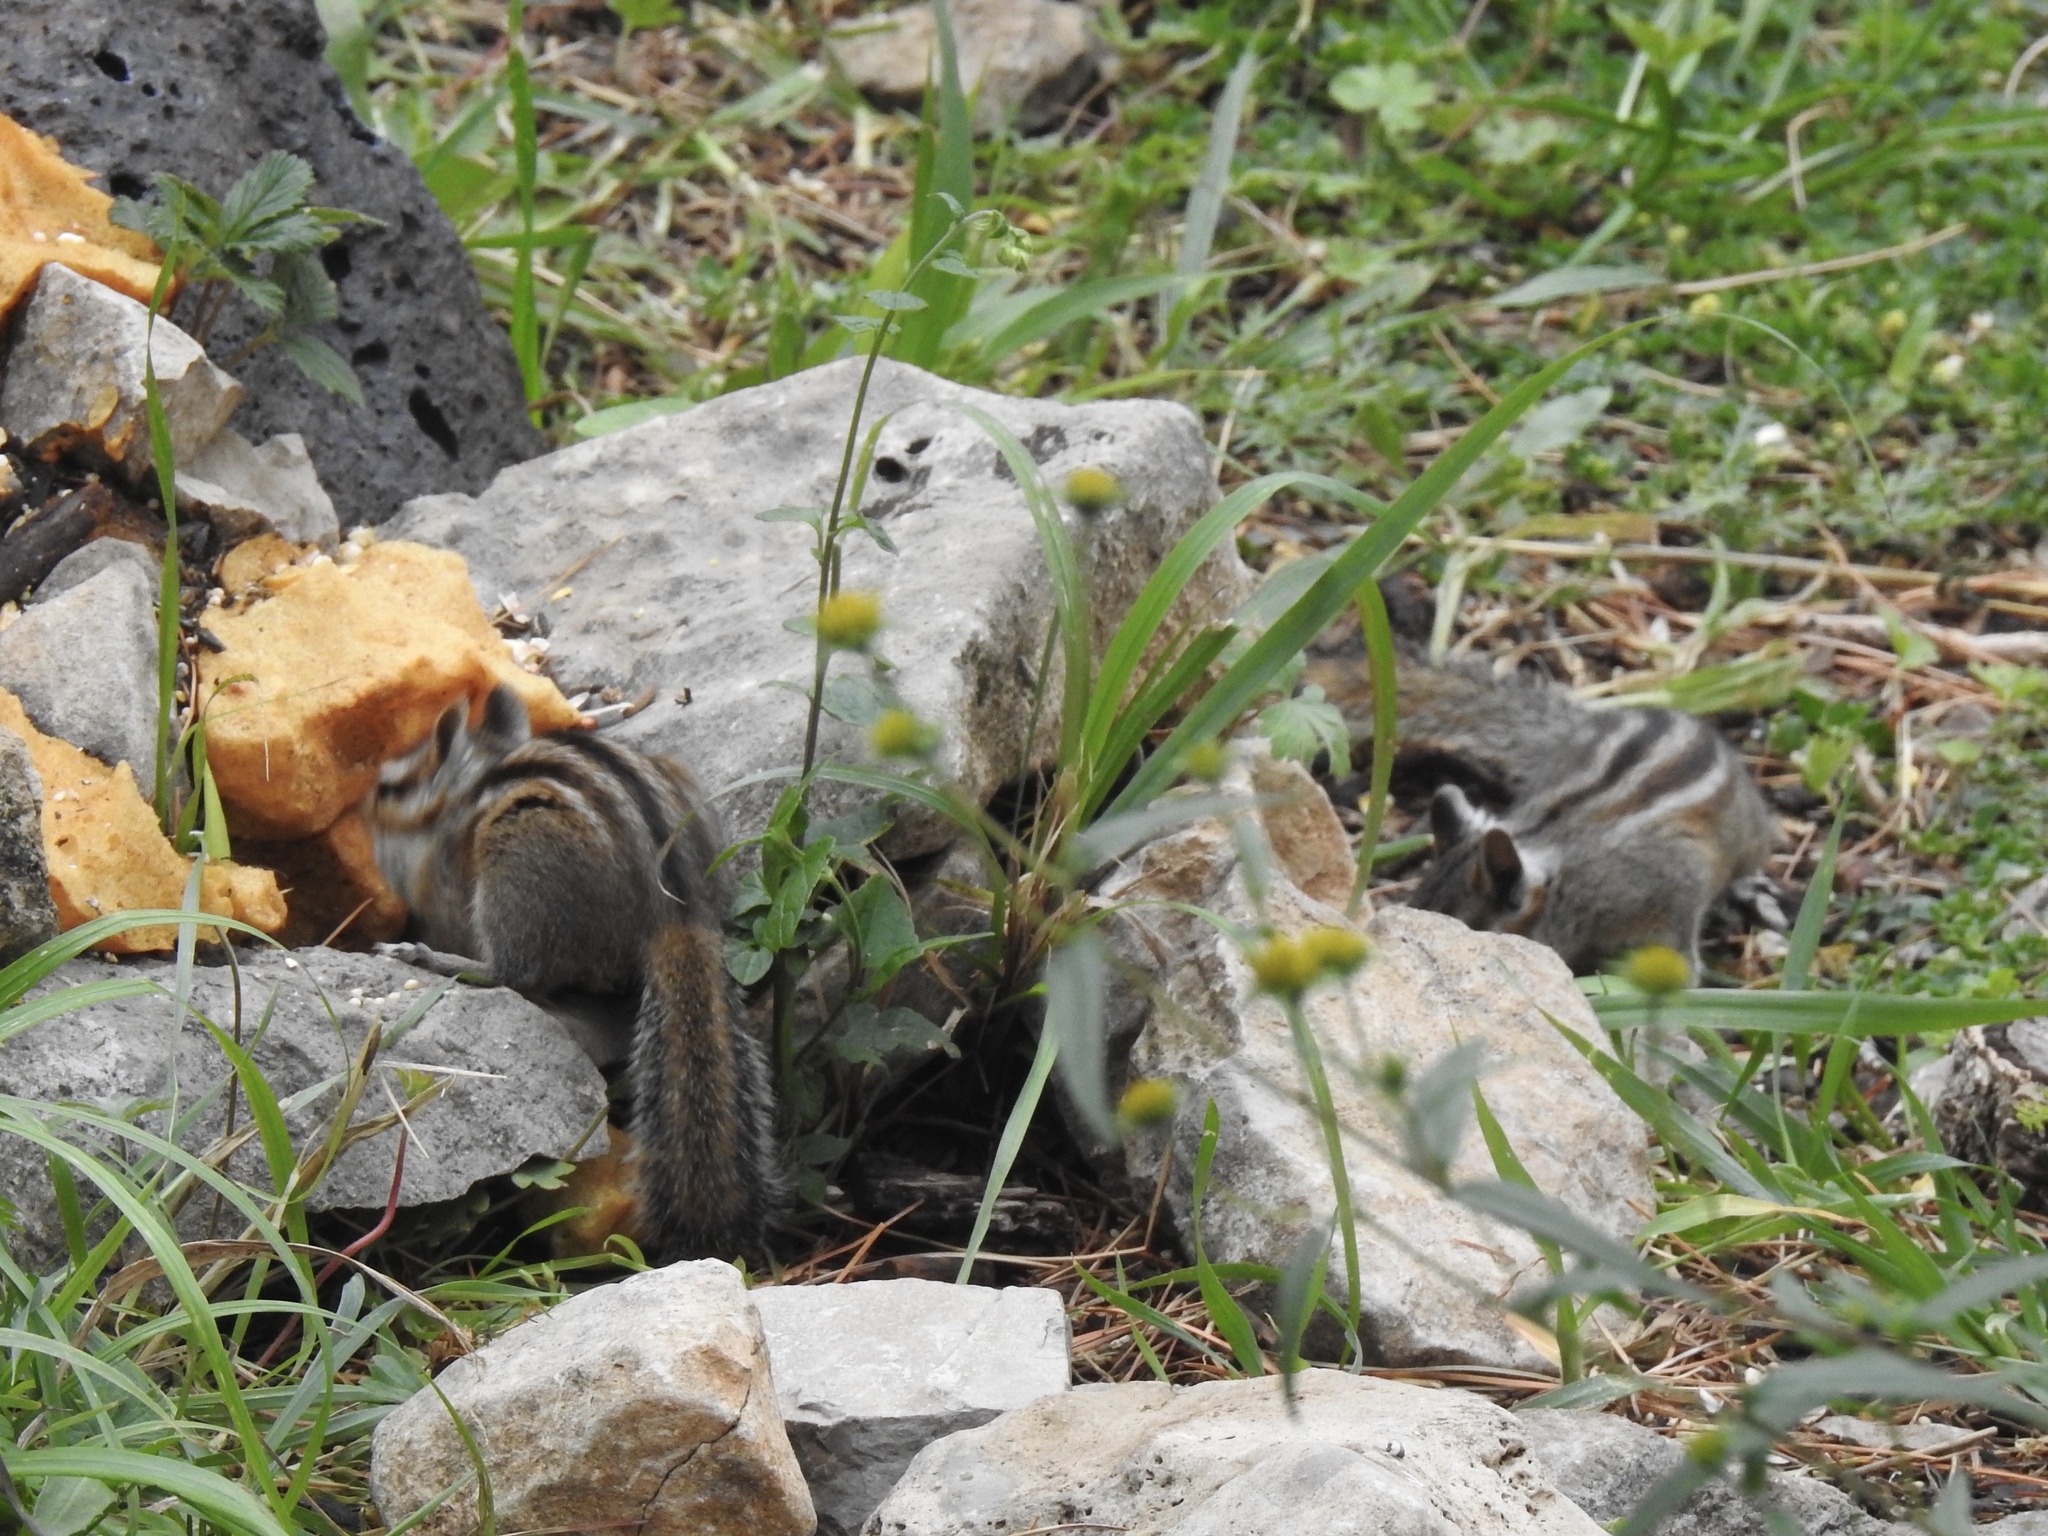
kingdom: Animalia
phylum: Chordata
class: Mammalia
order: Rodentia
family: Sciuridae
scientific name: Sciuridae
